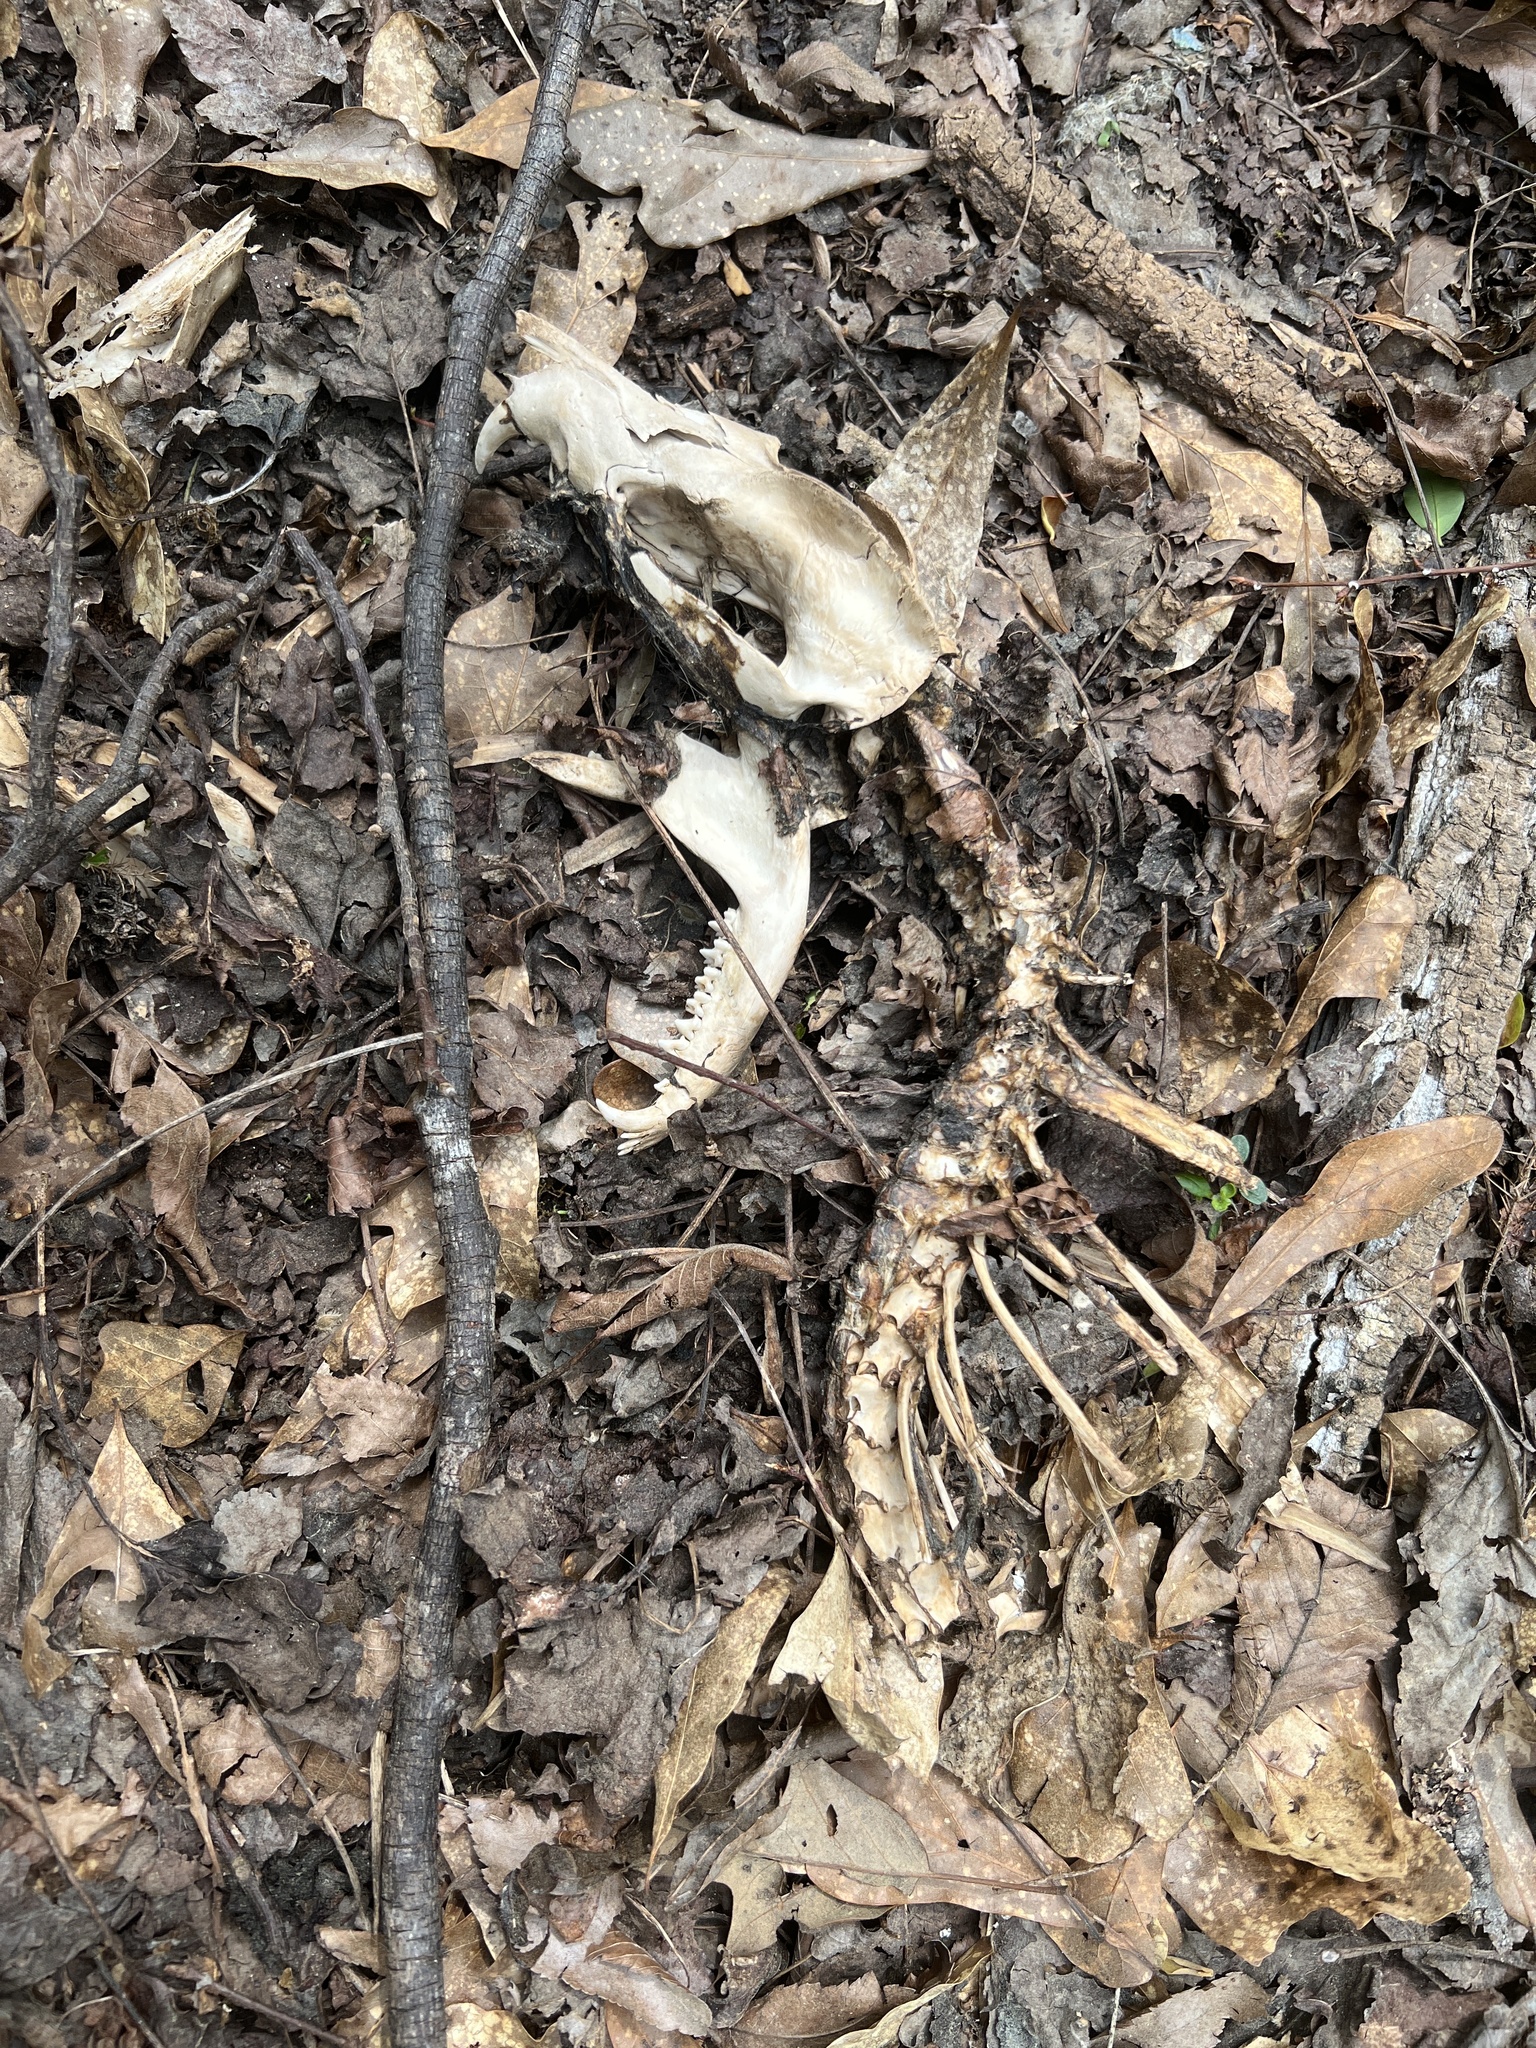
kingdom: Animalia
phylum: Chordata
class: Mammalia
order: Didelphimorphia
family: Didelphidae
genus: Didelphis
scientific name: Didelphis virginiana
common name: Virginia opossum
